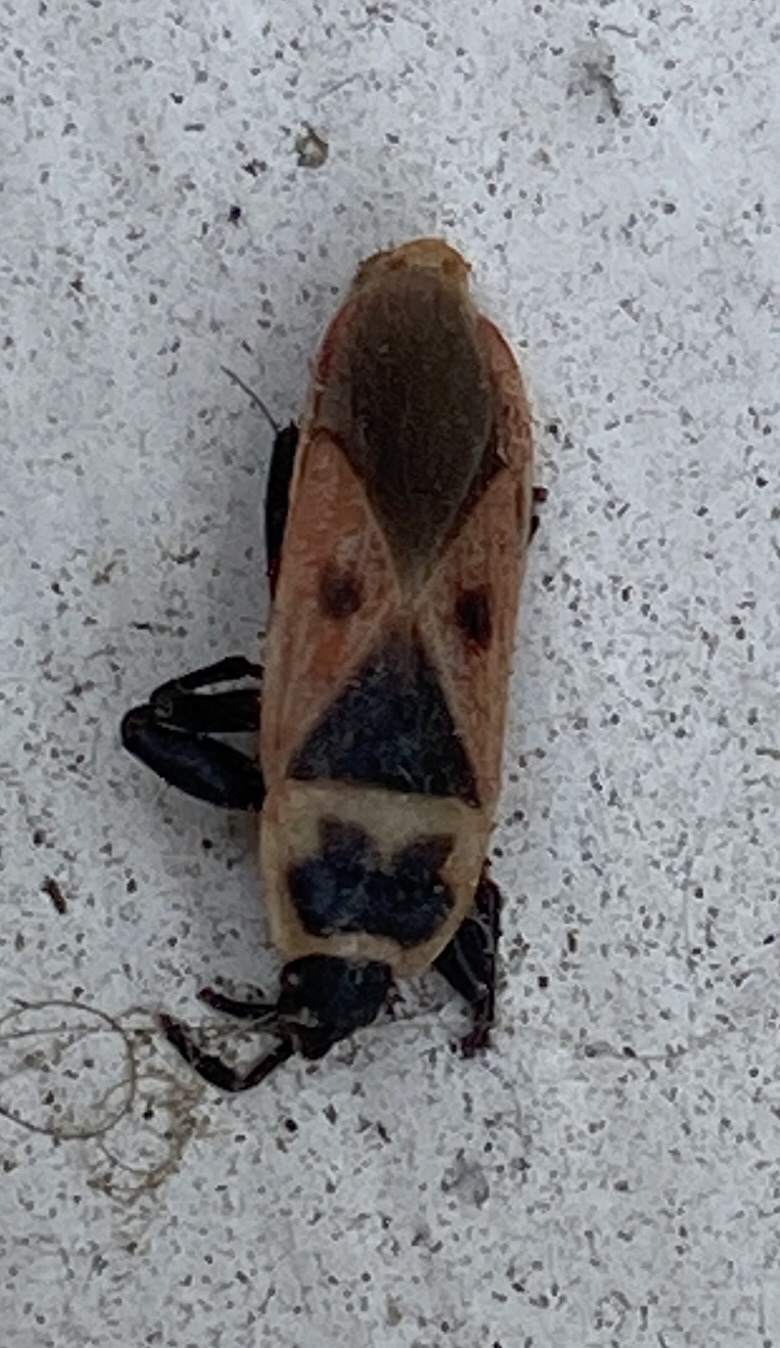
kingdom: Animalia
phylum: Arthropoda
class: Insecta
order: Hemiptera
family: Pyrrhocoridae
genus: Scantius
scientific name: Scantius aegyptius
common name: Red bug
